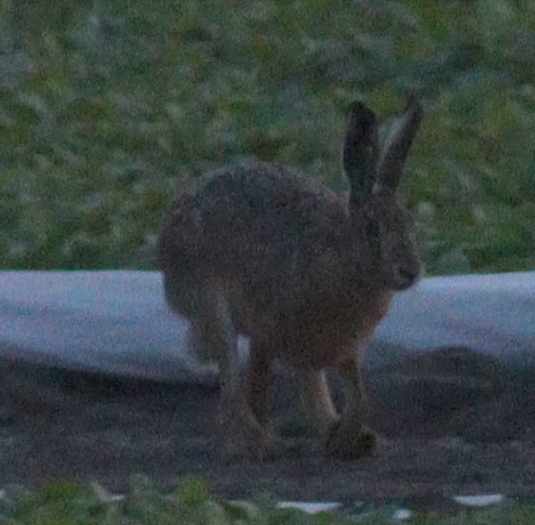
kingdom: Animalia
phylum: Chordata
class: Mammalia
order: Lagomorpha
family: Leporidae
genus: Lepus
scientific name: Lepus europaeus
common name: European hare
